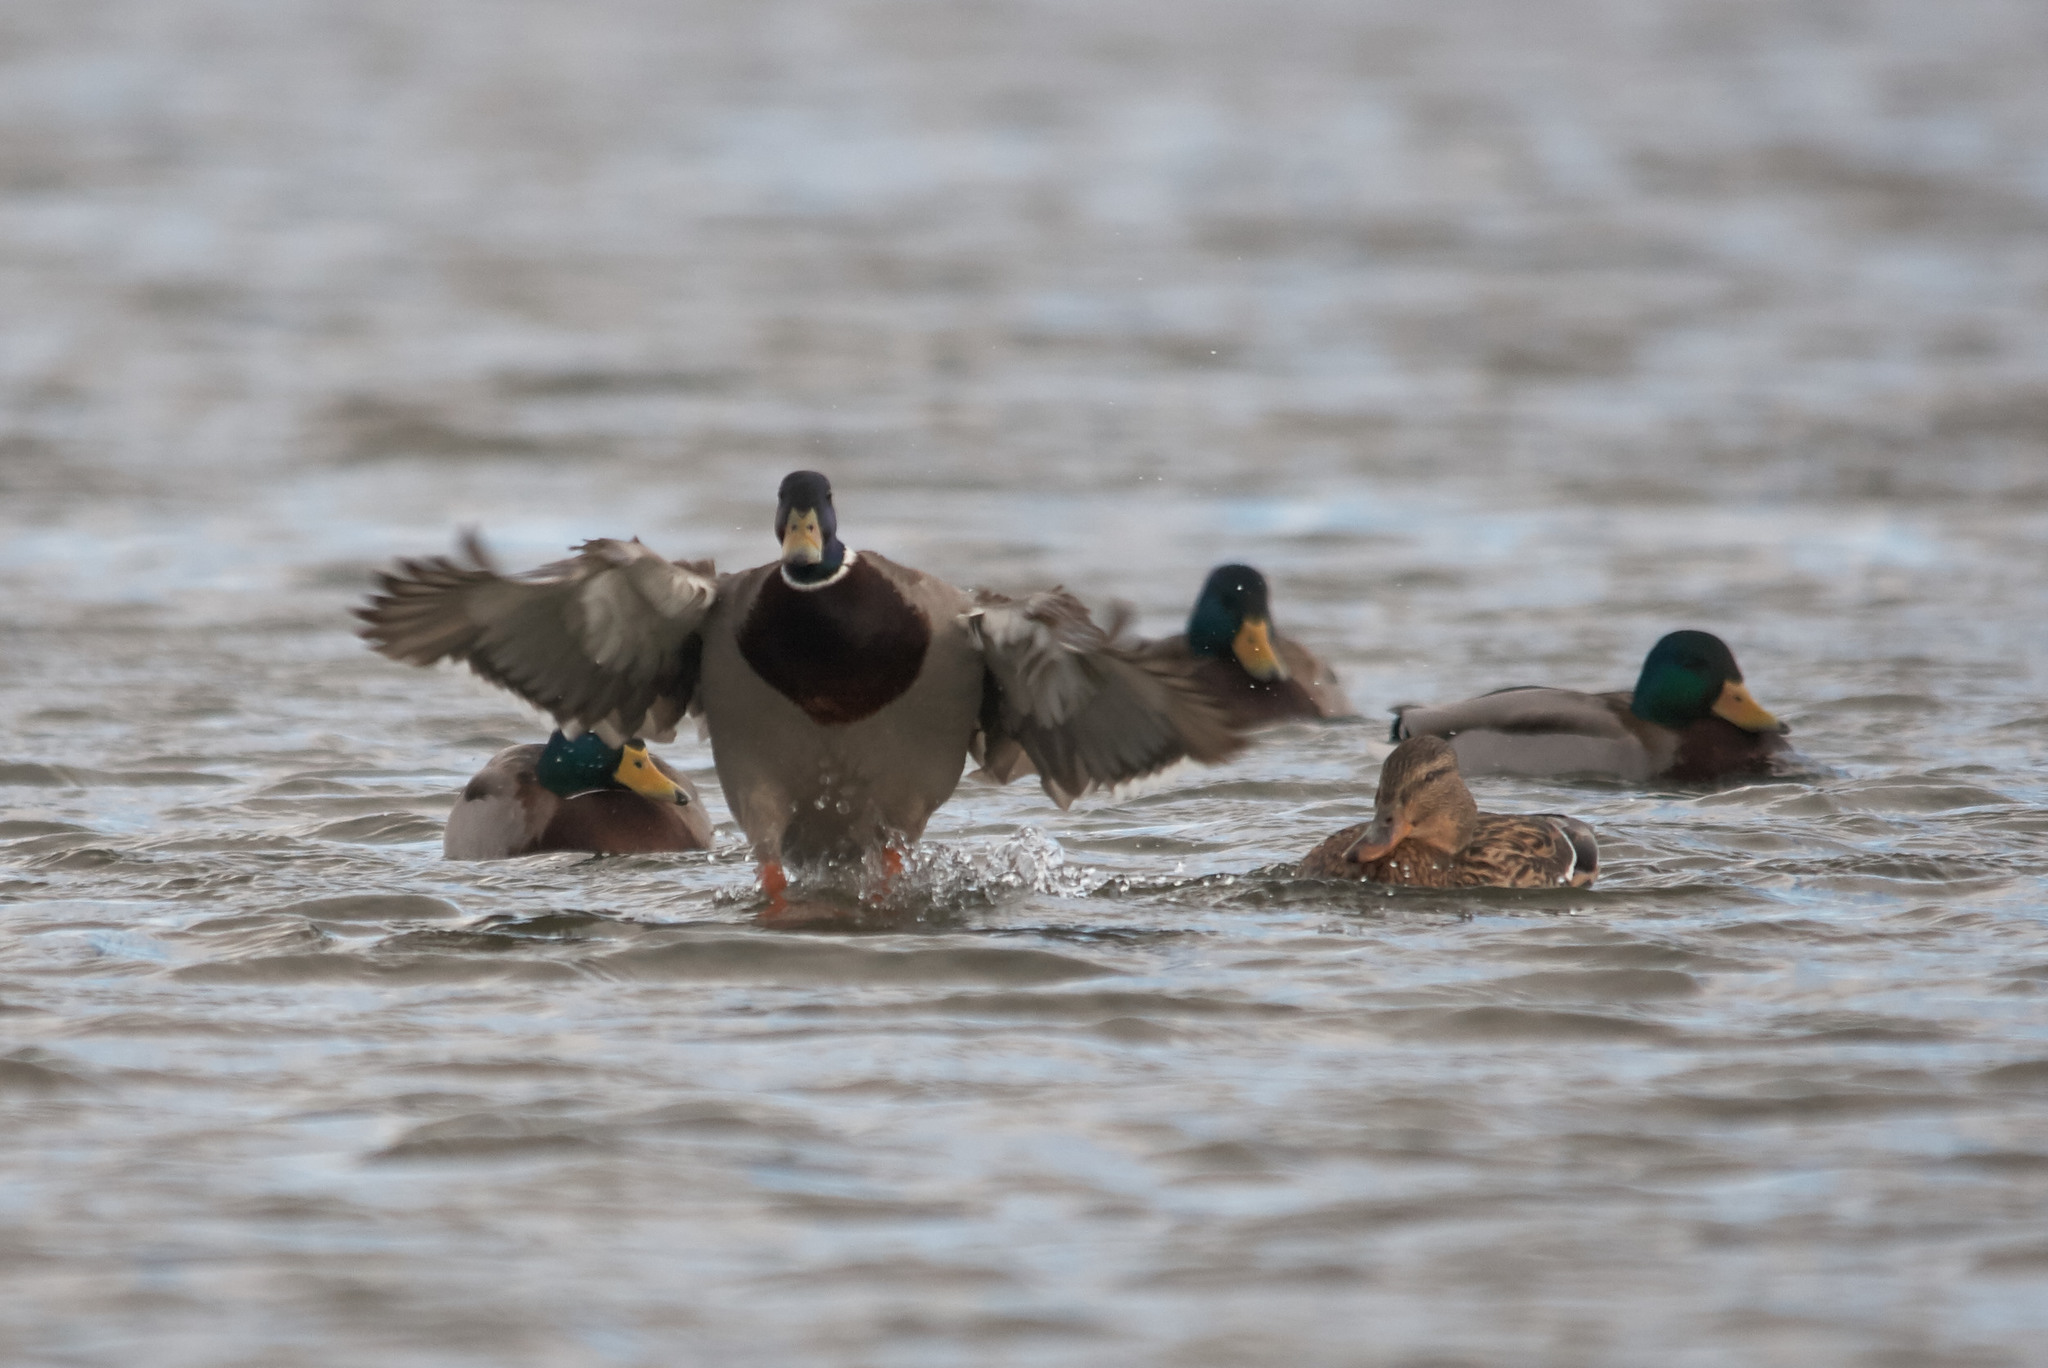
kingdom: Animalia
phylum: Chordata
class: Aves
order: Anseriformes
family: Anatidae
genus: Anas
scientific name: Anas platyrhynchos
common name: Mallard
